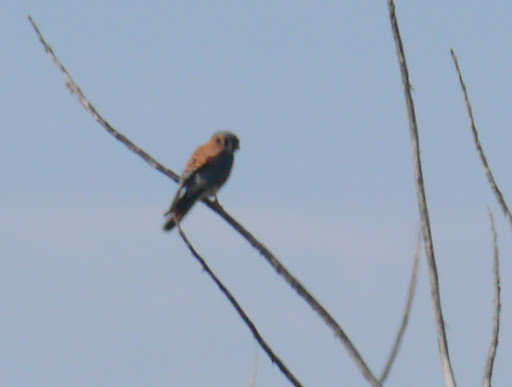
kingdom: Animalia
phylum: Chordata
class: Aves
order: Falconiformes
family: Falconidae
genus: Falco
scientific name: Falco sparverius
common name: American kestrel
